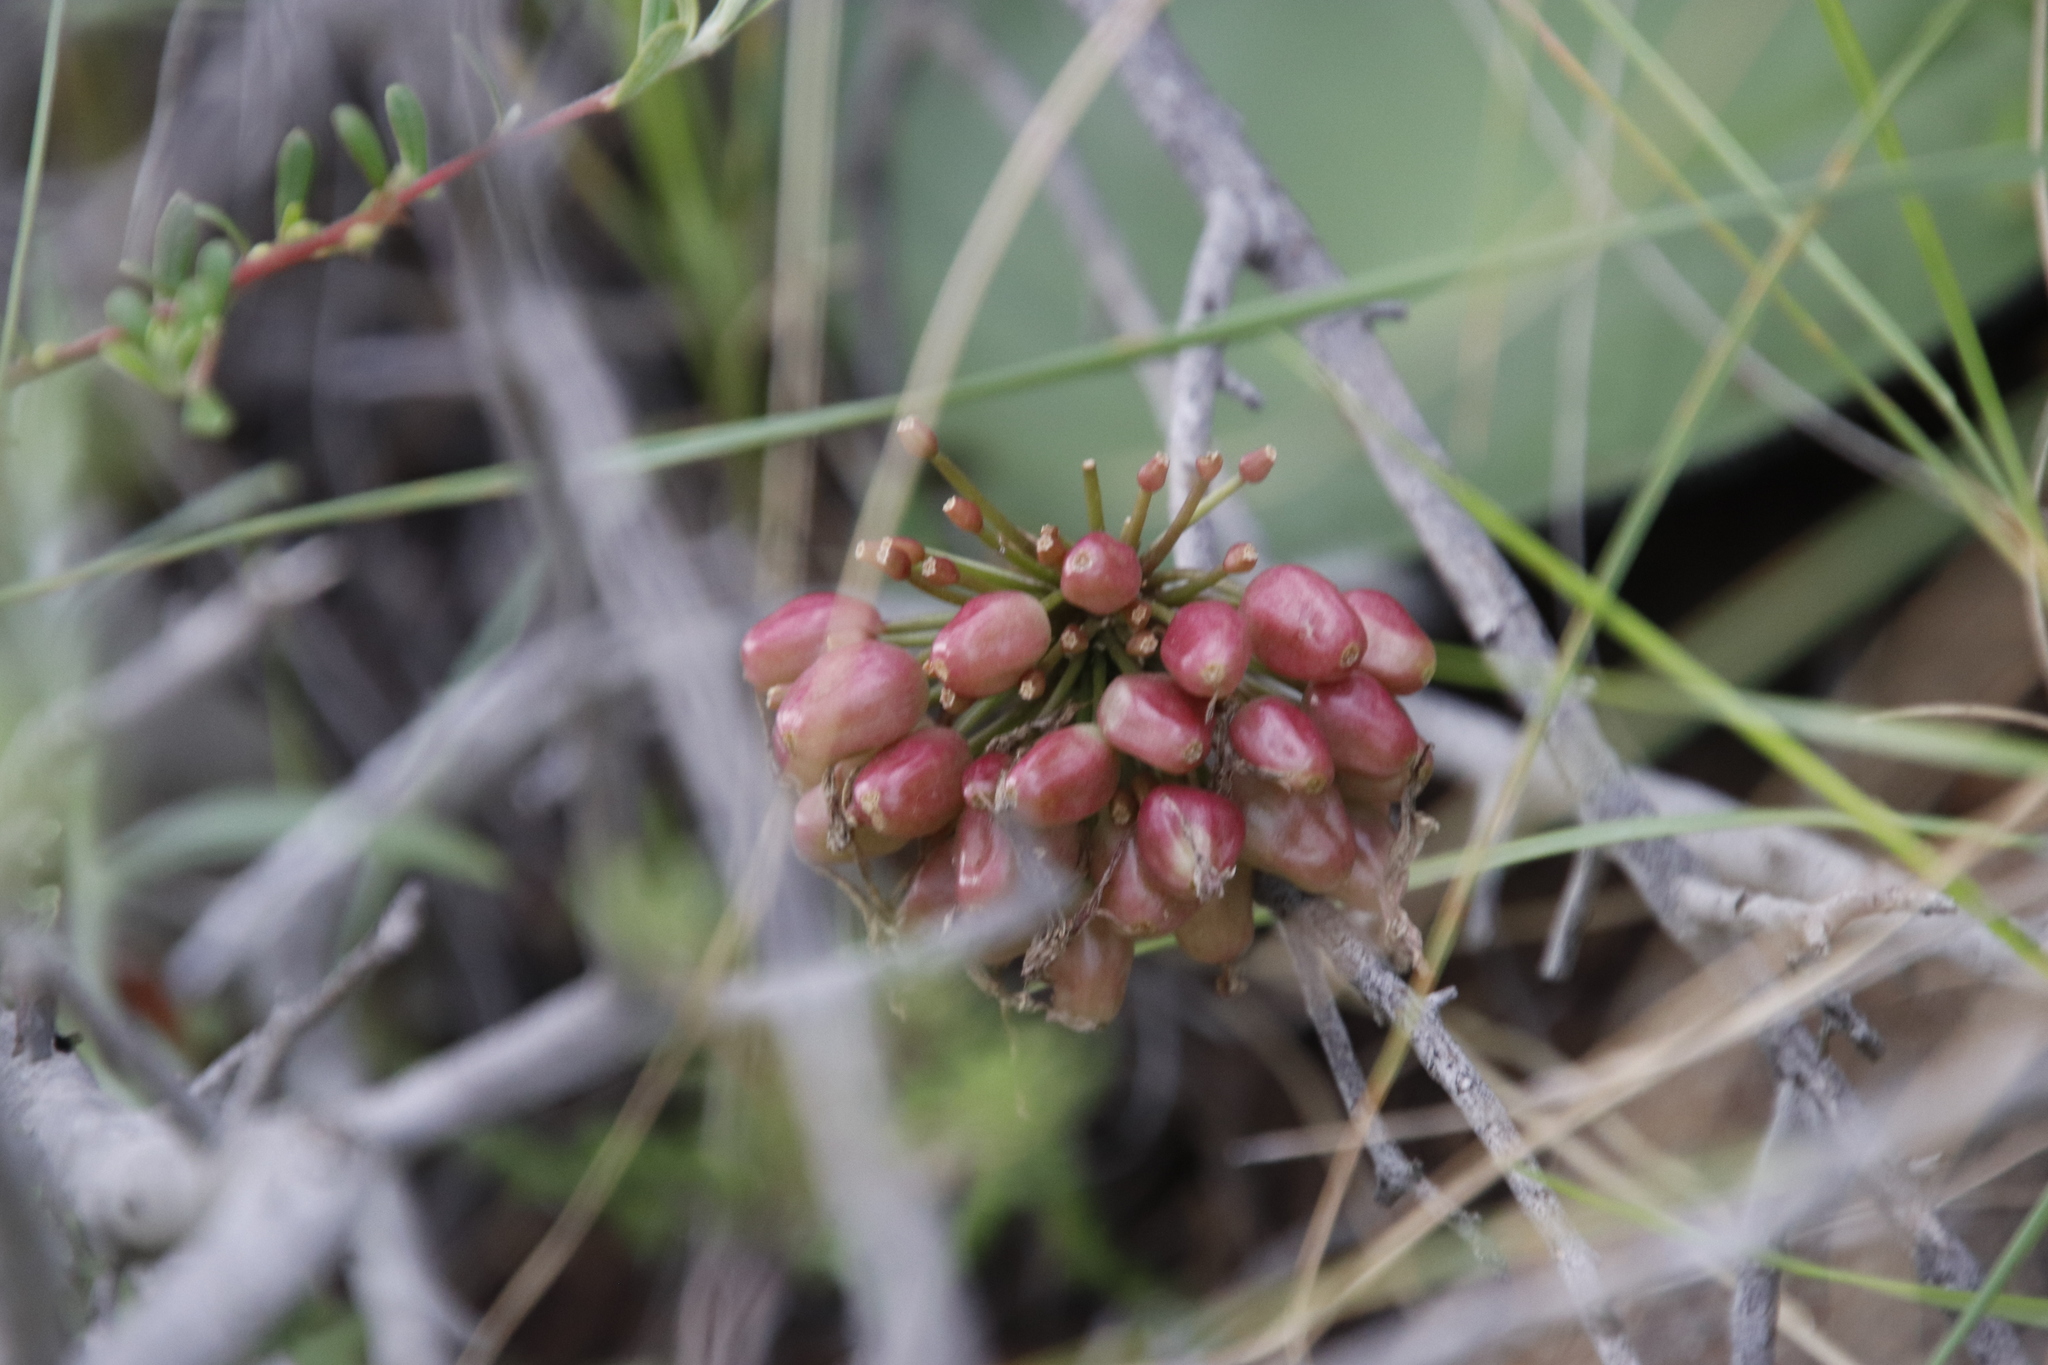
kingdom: Plantae
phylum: Tracheophyta
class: Liliopsida
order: Asparagales
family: Amaryllidaceae
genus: Haemanthus
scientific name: Haemanthus humilis
